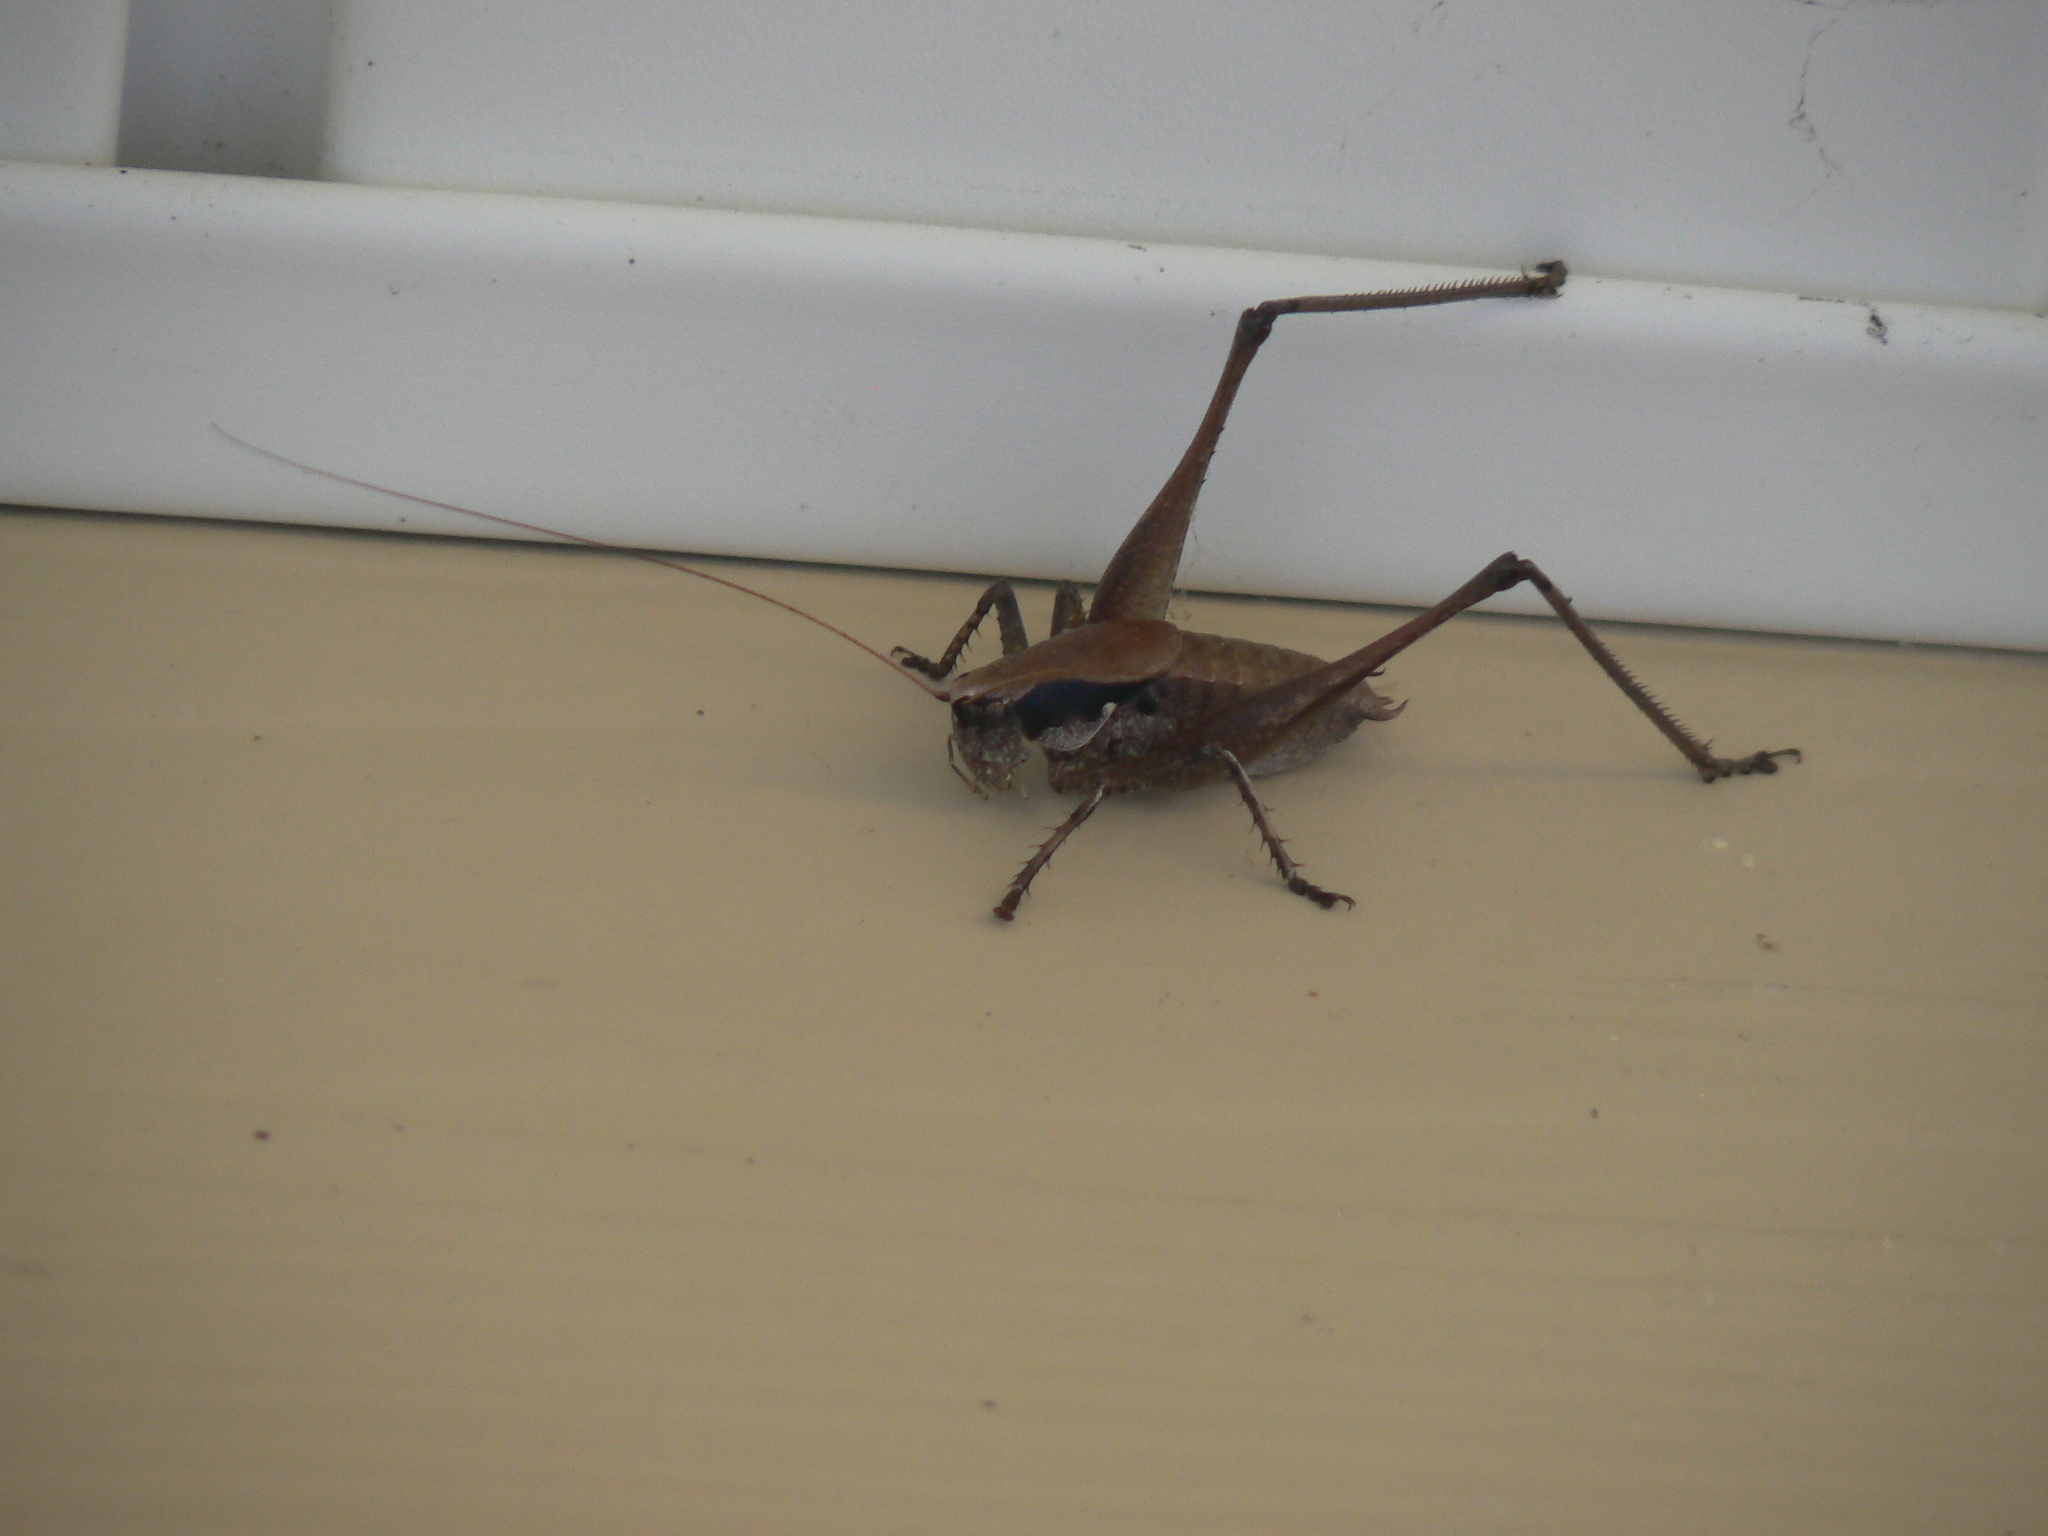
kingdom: Animalia
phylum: Arthropoda
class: Insecta
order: Orthoptera
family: Tettigoniidae
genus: Atlanticus
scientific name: Atlanticus gibbosus
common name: Robust shield-bearer
